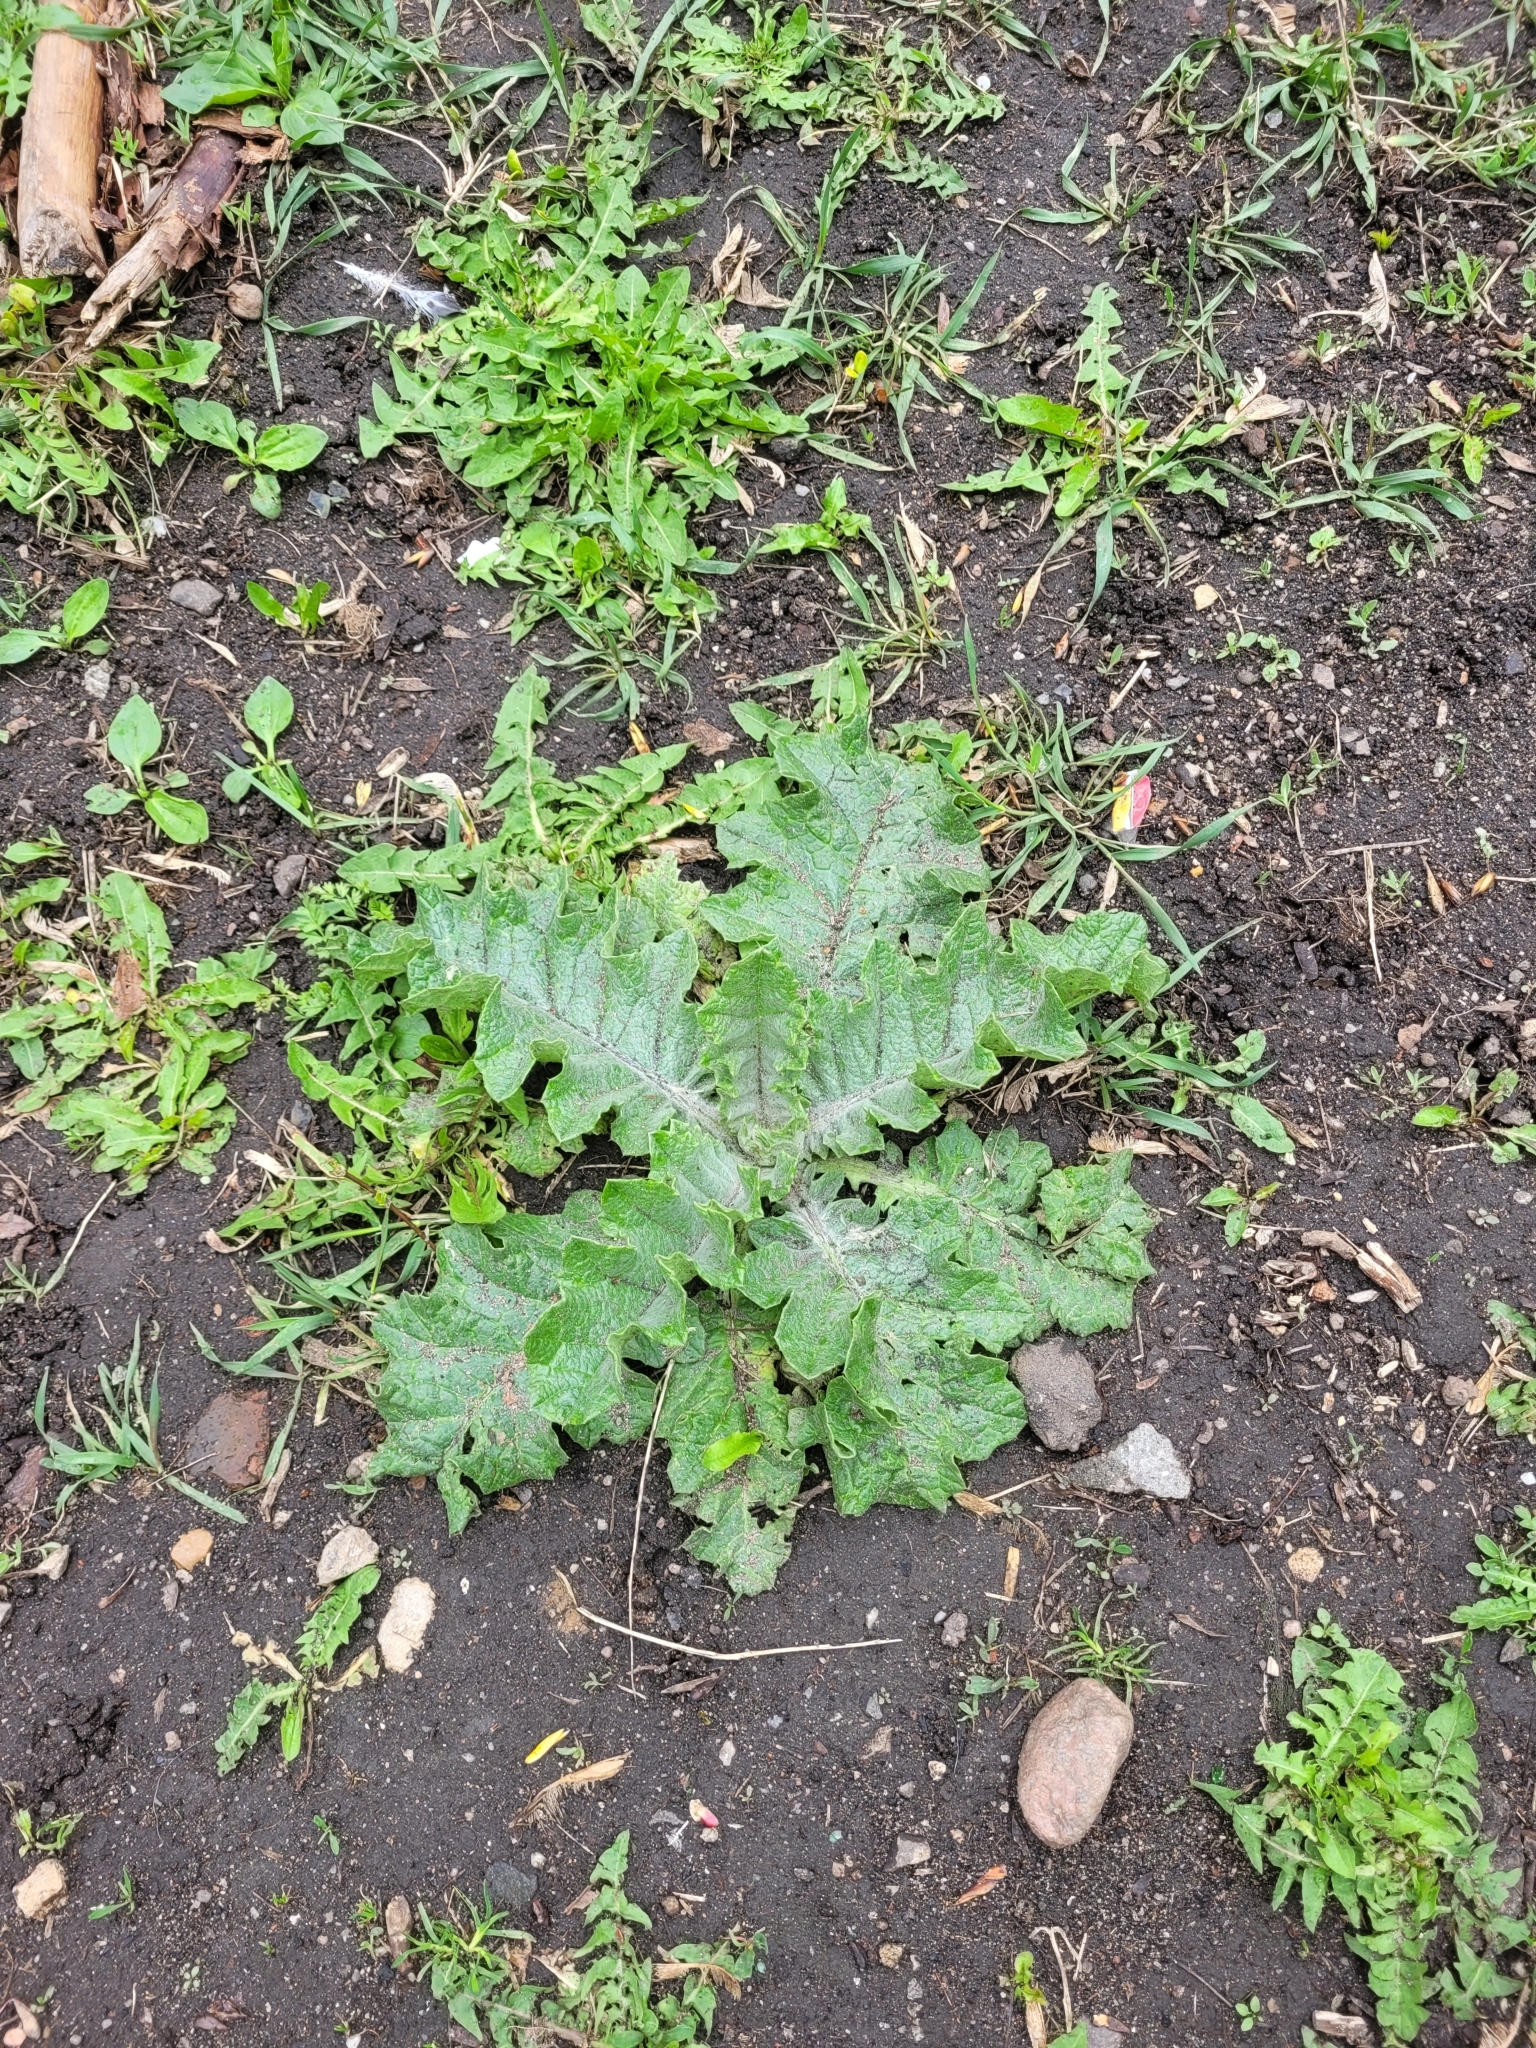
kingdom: Plantae
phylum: Tracheophyta
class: Magnoliopsida
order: Asterales
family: Asteraceae
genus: Onopordum
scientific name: Onopordum acanthium
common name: Scotch thistle
